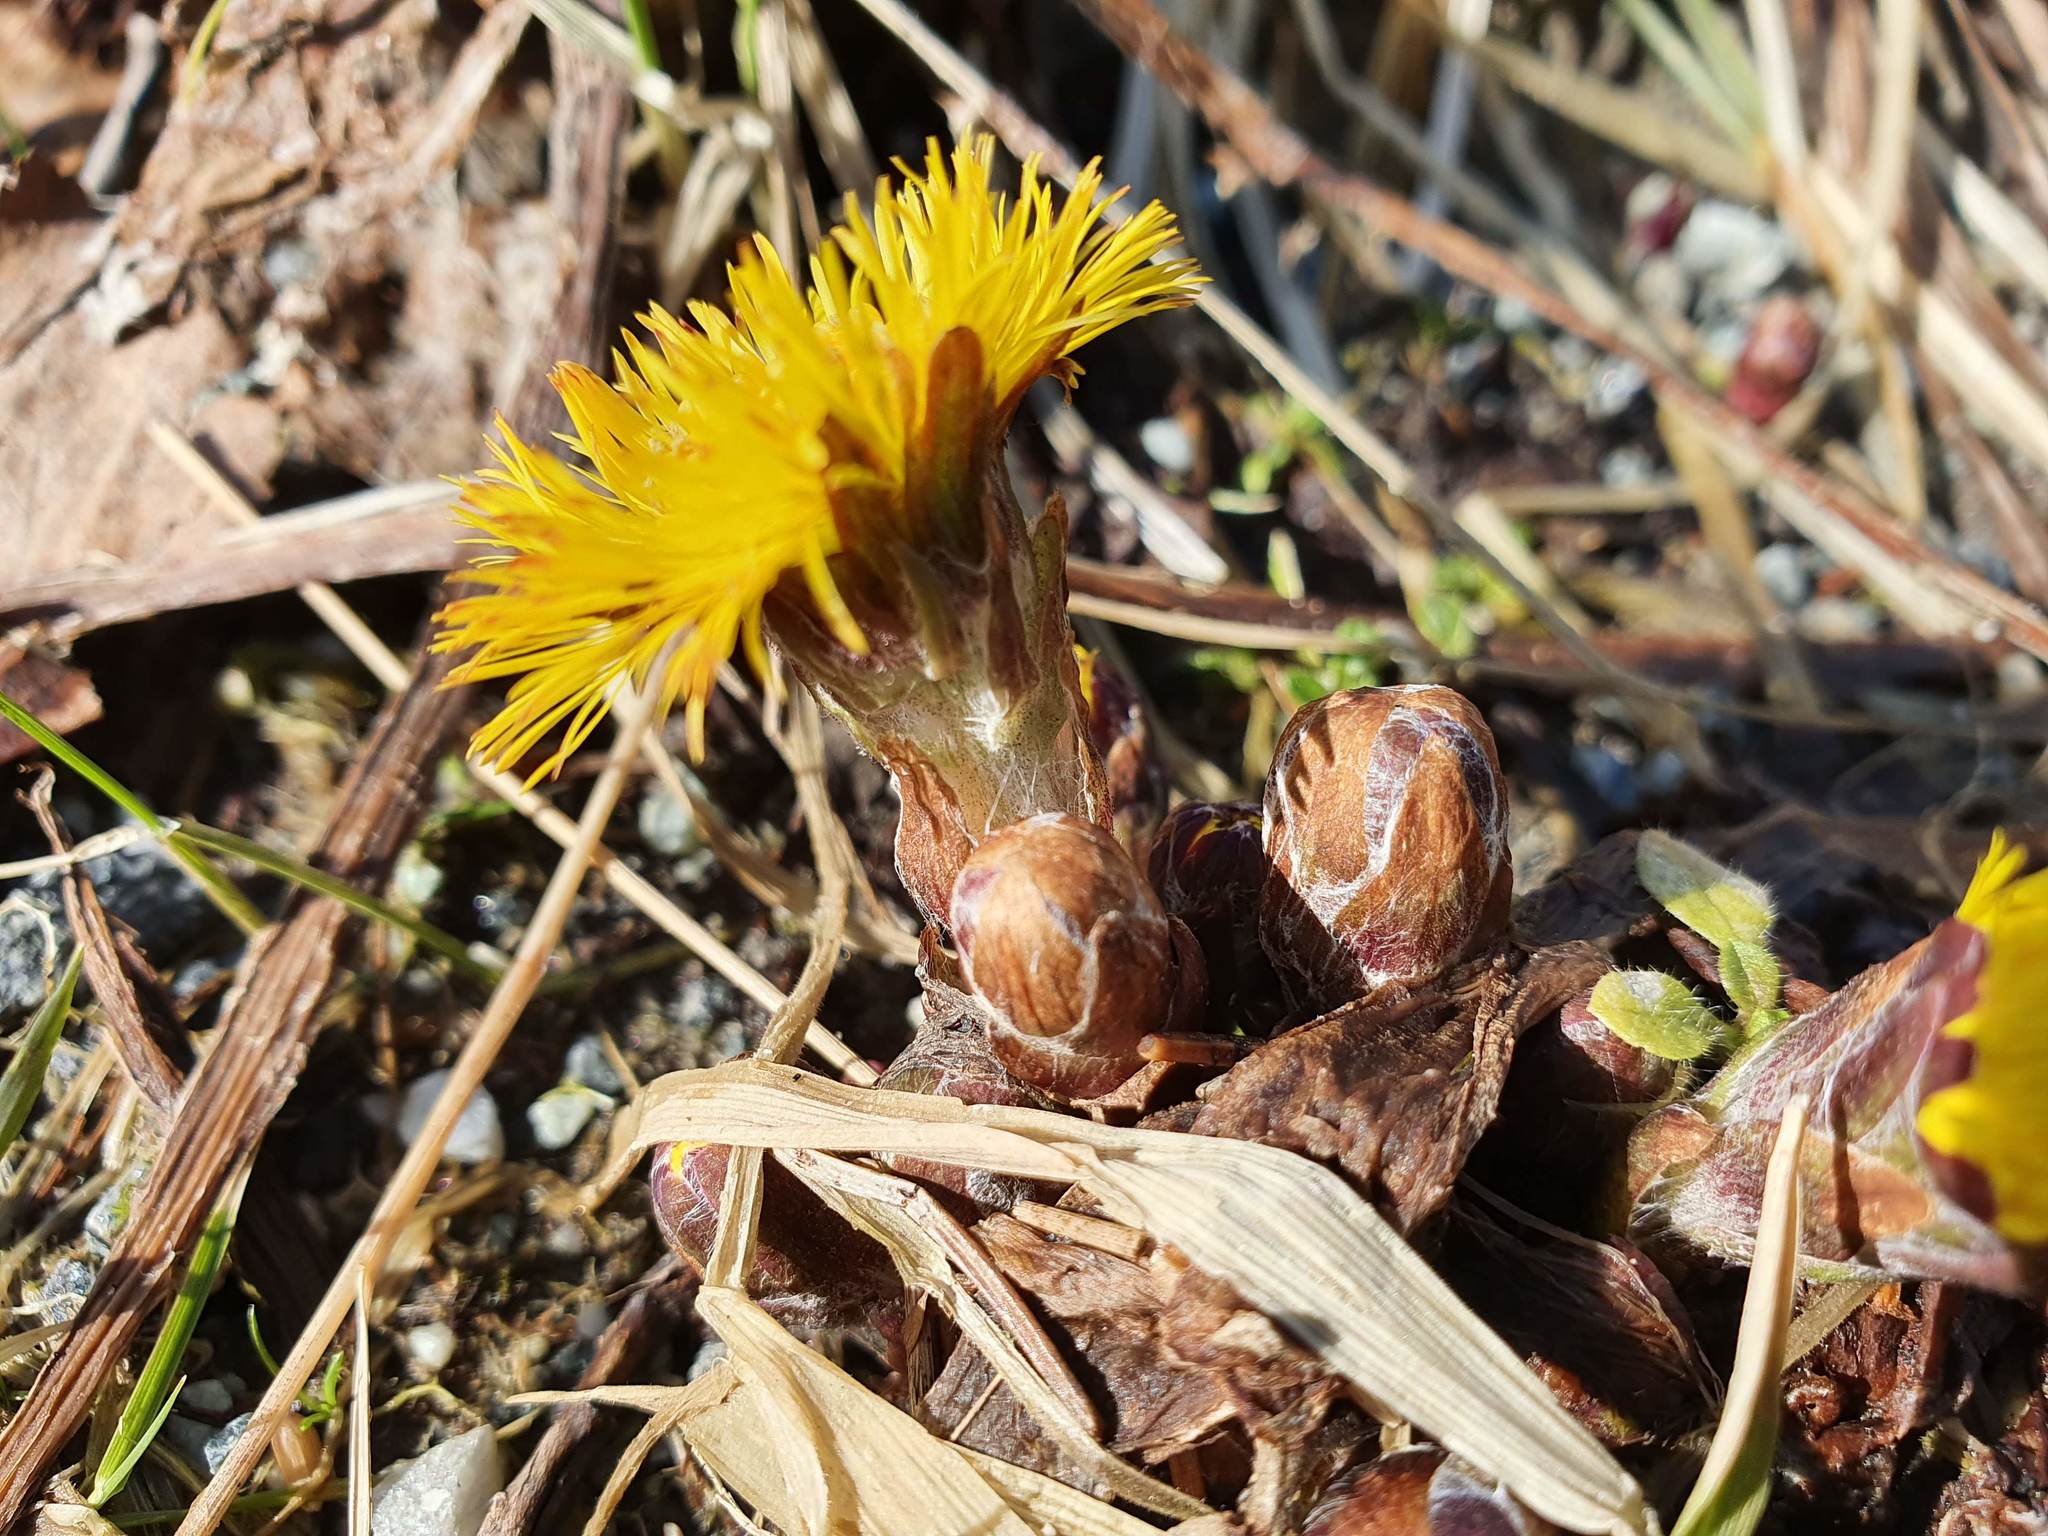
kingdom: Plantae
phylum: Tracheophyta
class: Magnoliopsida
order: Asterales
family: Asteraceae
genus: Tussilago
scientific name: Tussilago farfara
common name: Coltsfoot
